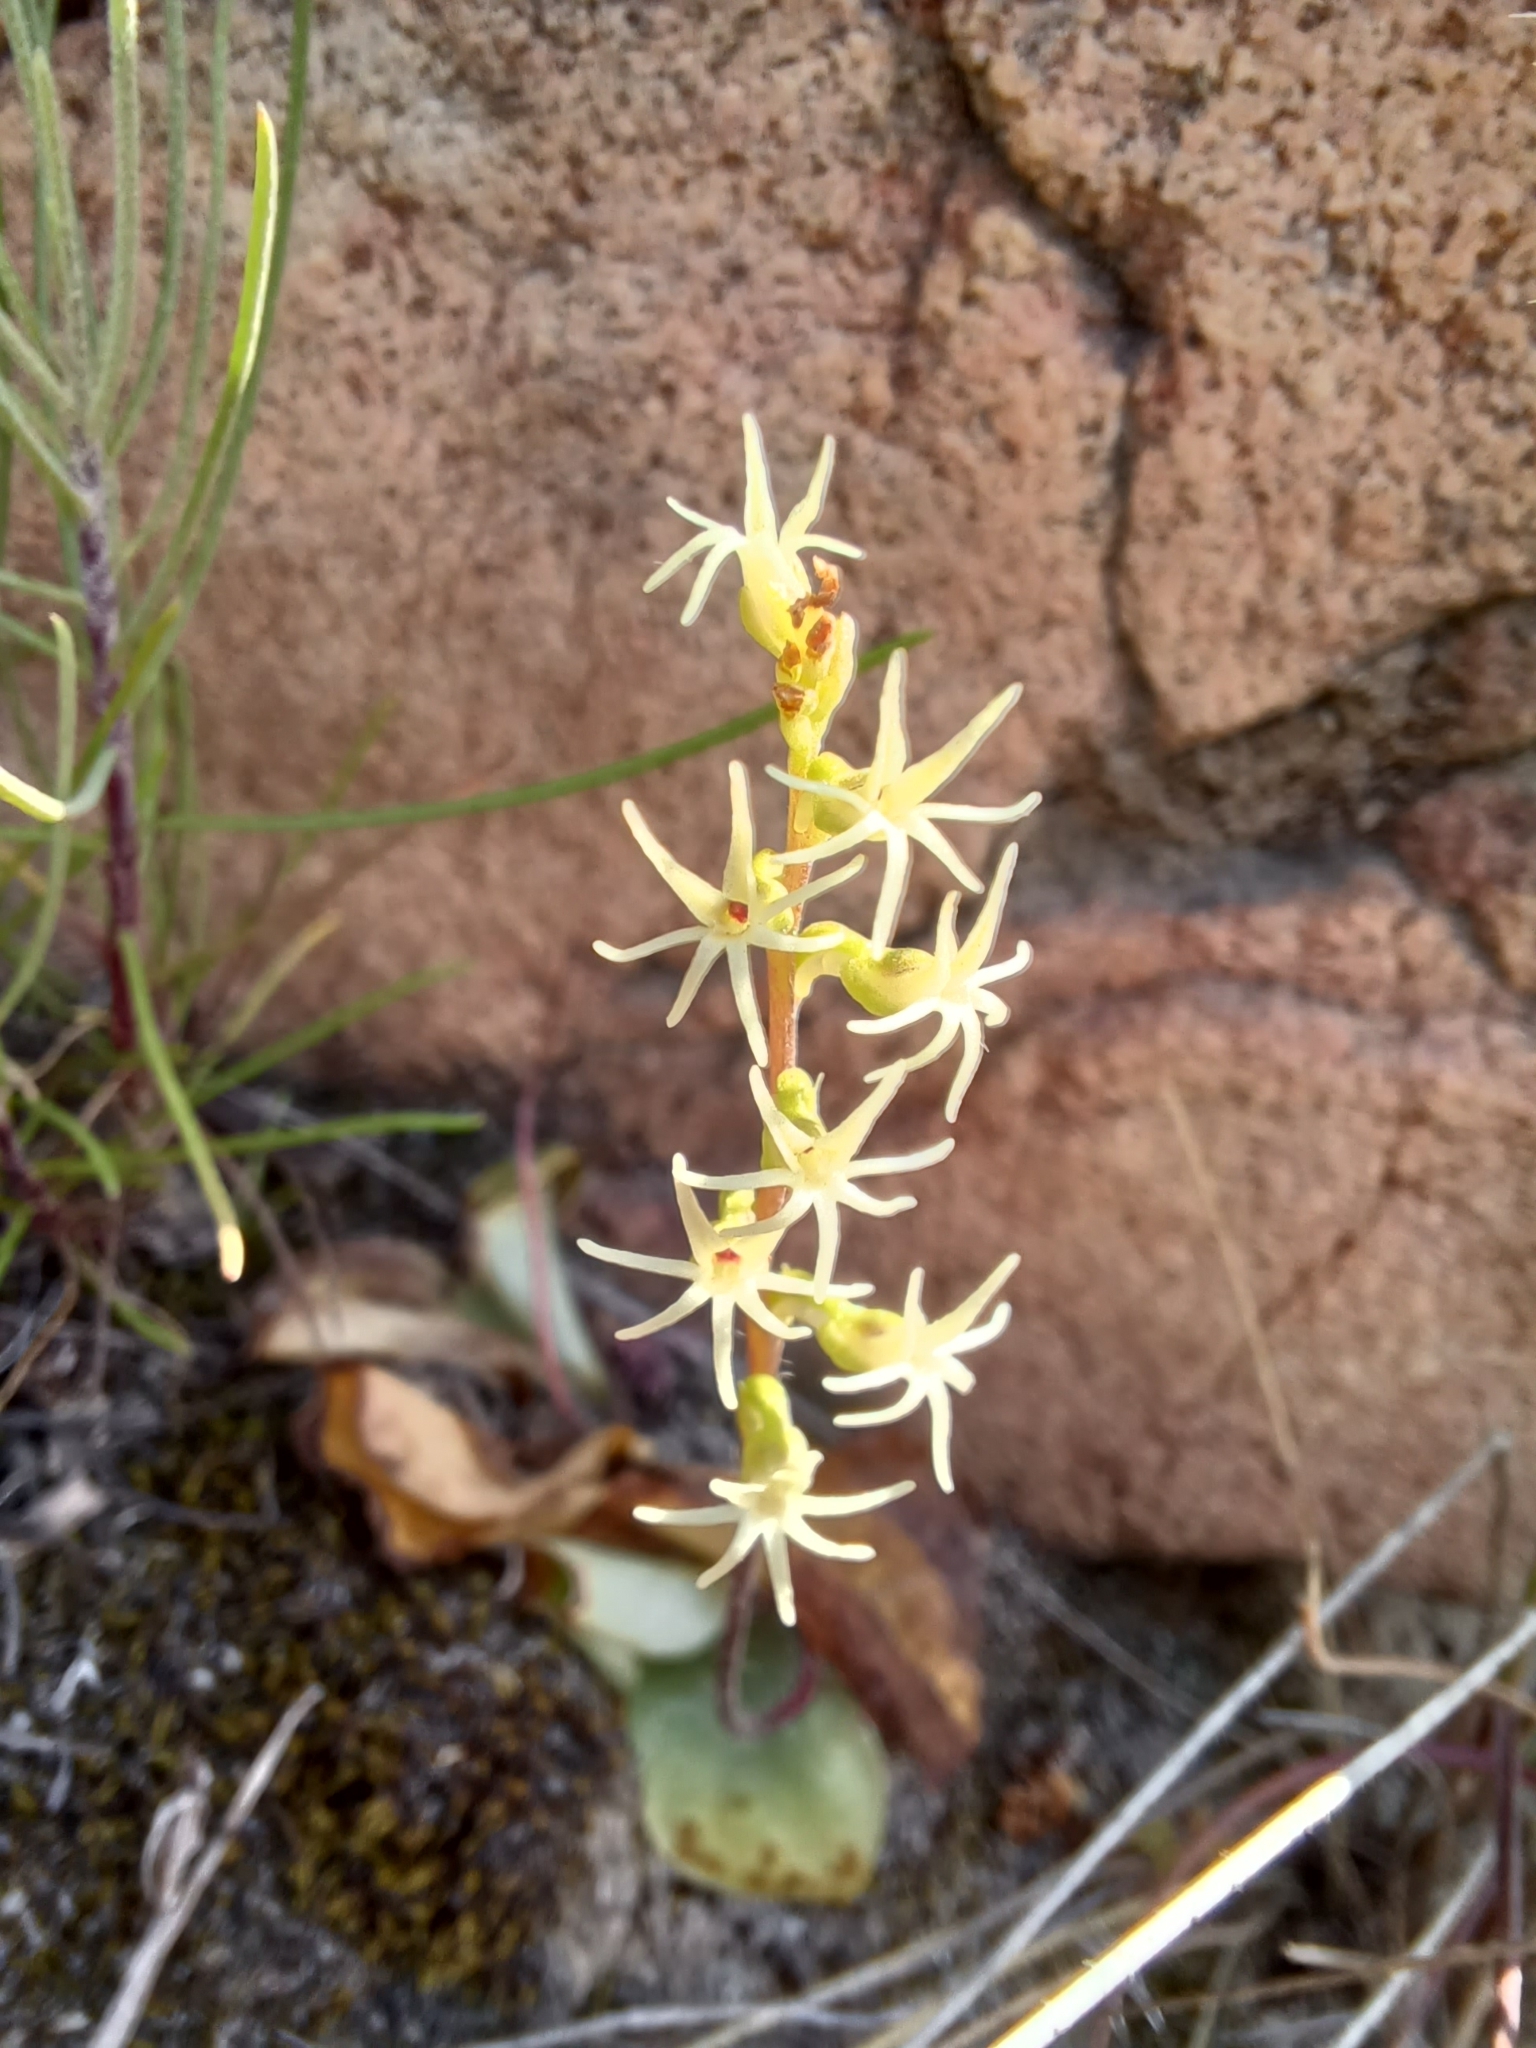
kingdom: Plantae
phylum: Tracheophyta
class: Liliopsida
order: Asparagales
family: Orchidaceae
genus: Holothrix
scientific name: Holothrix secunda
